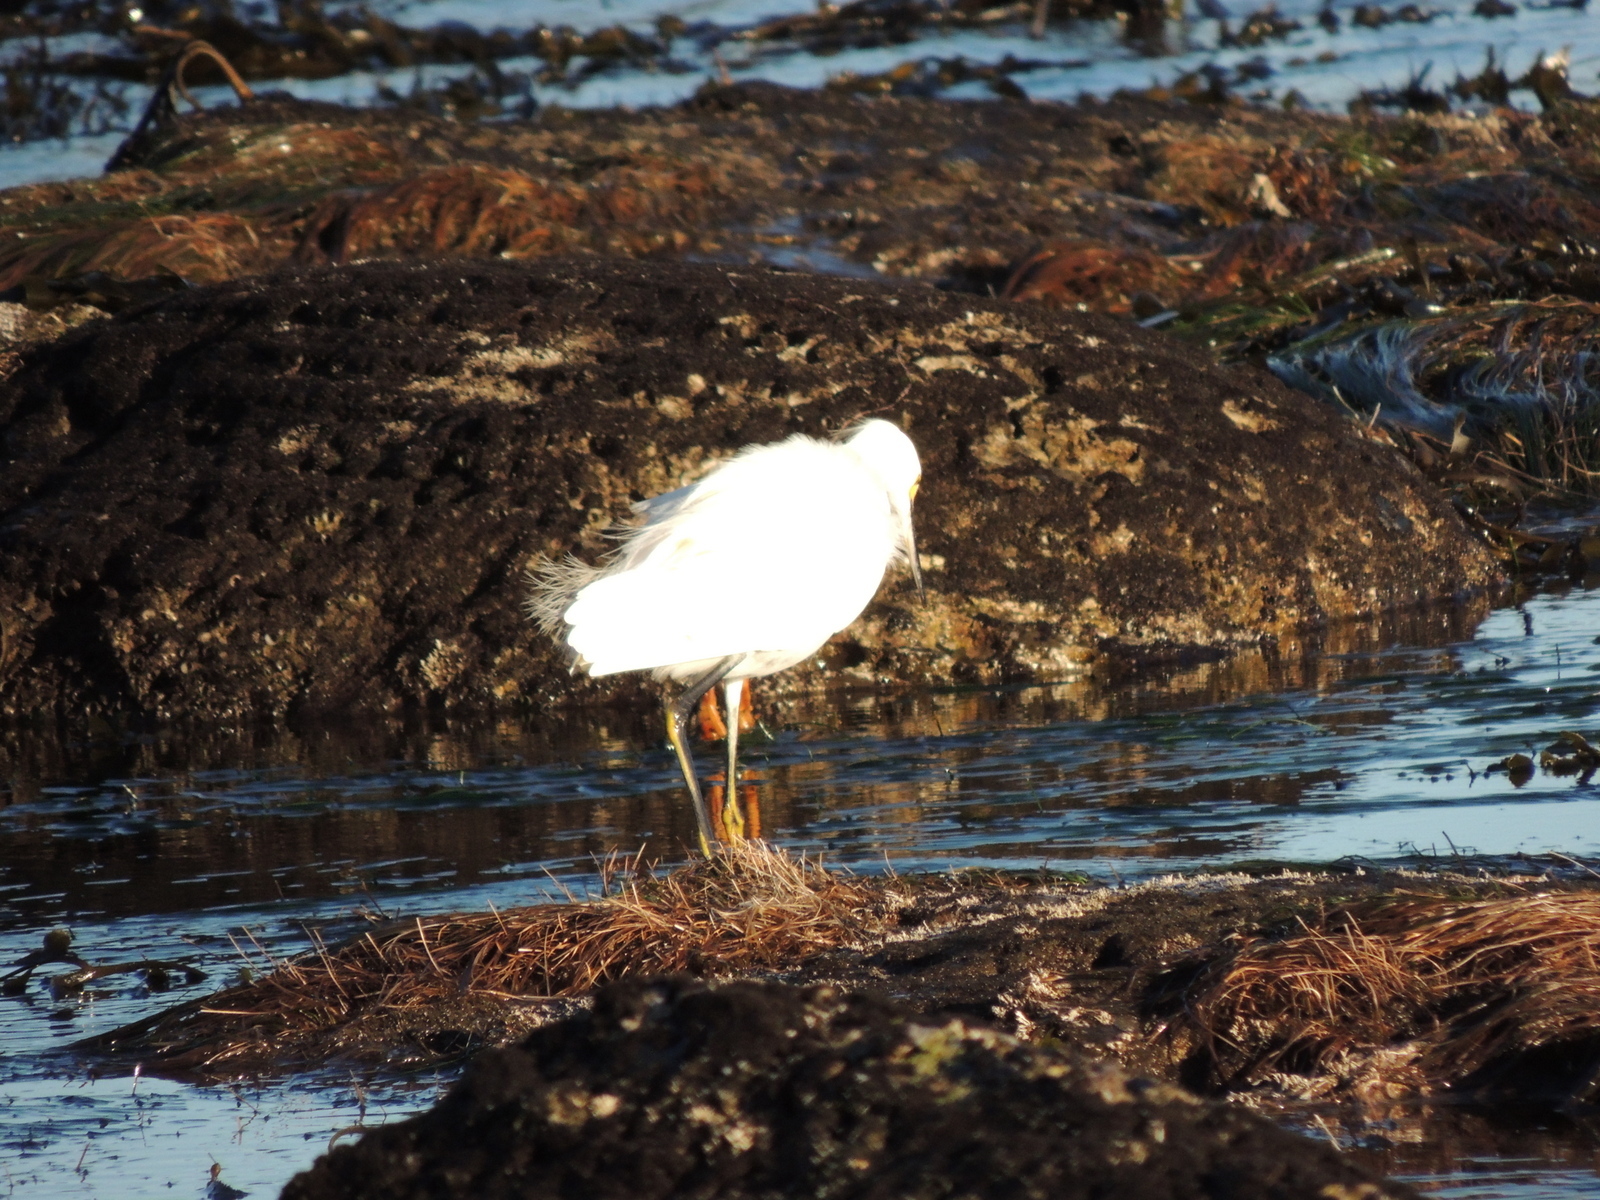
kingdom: Animalia
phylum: Chordata
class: Aves
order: Pelecaniformes
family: Ardeidae
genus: Egretta
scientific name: Egretta thula
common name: Snowy egret
